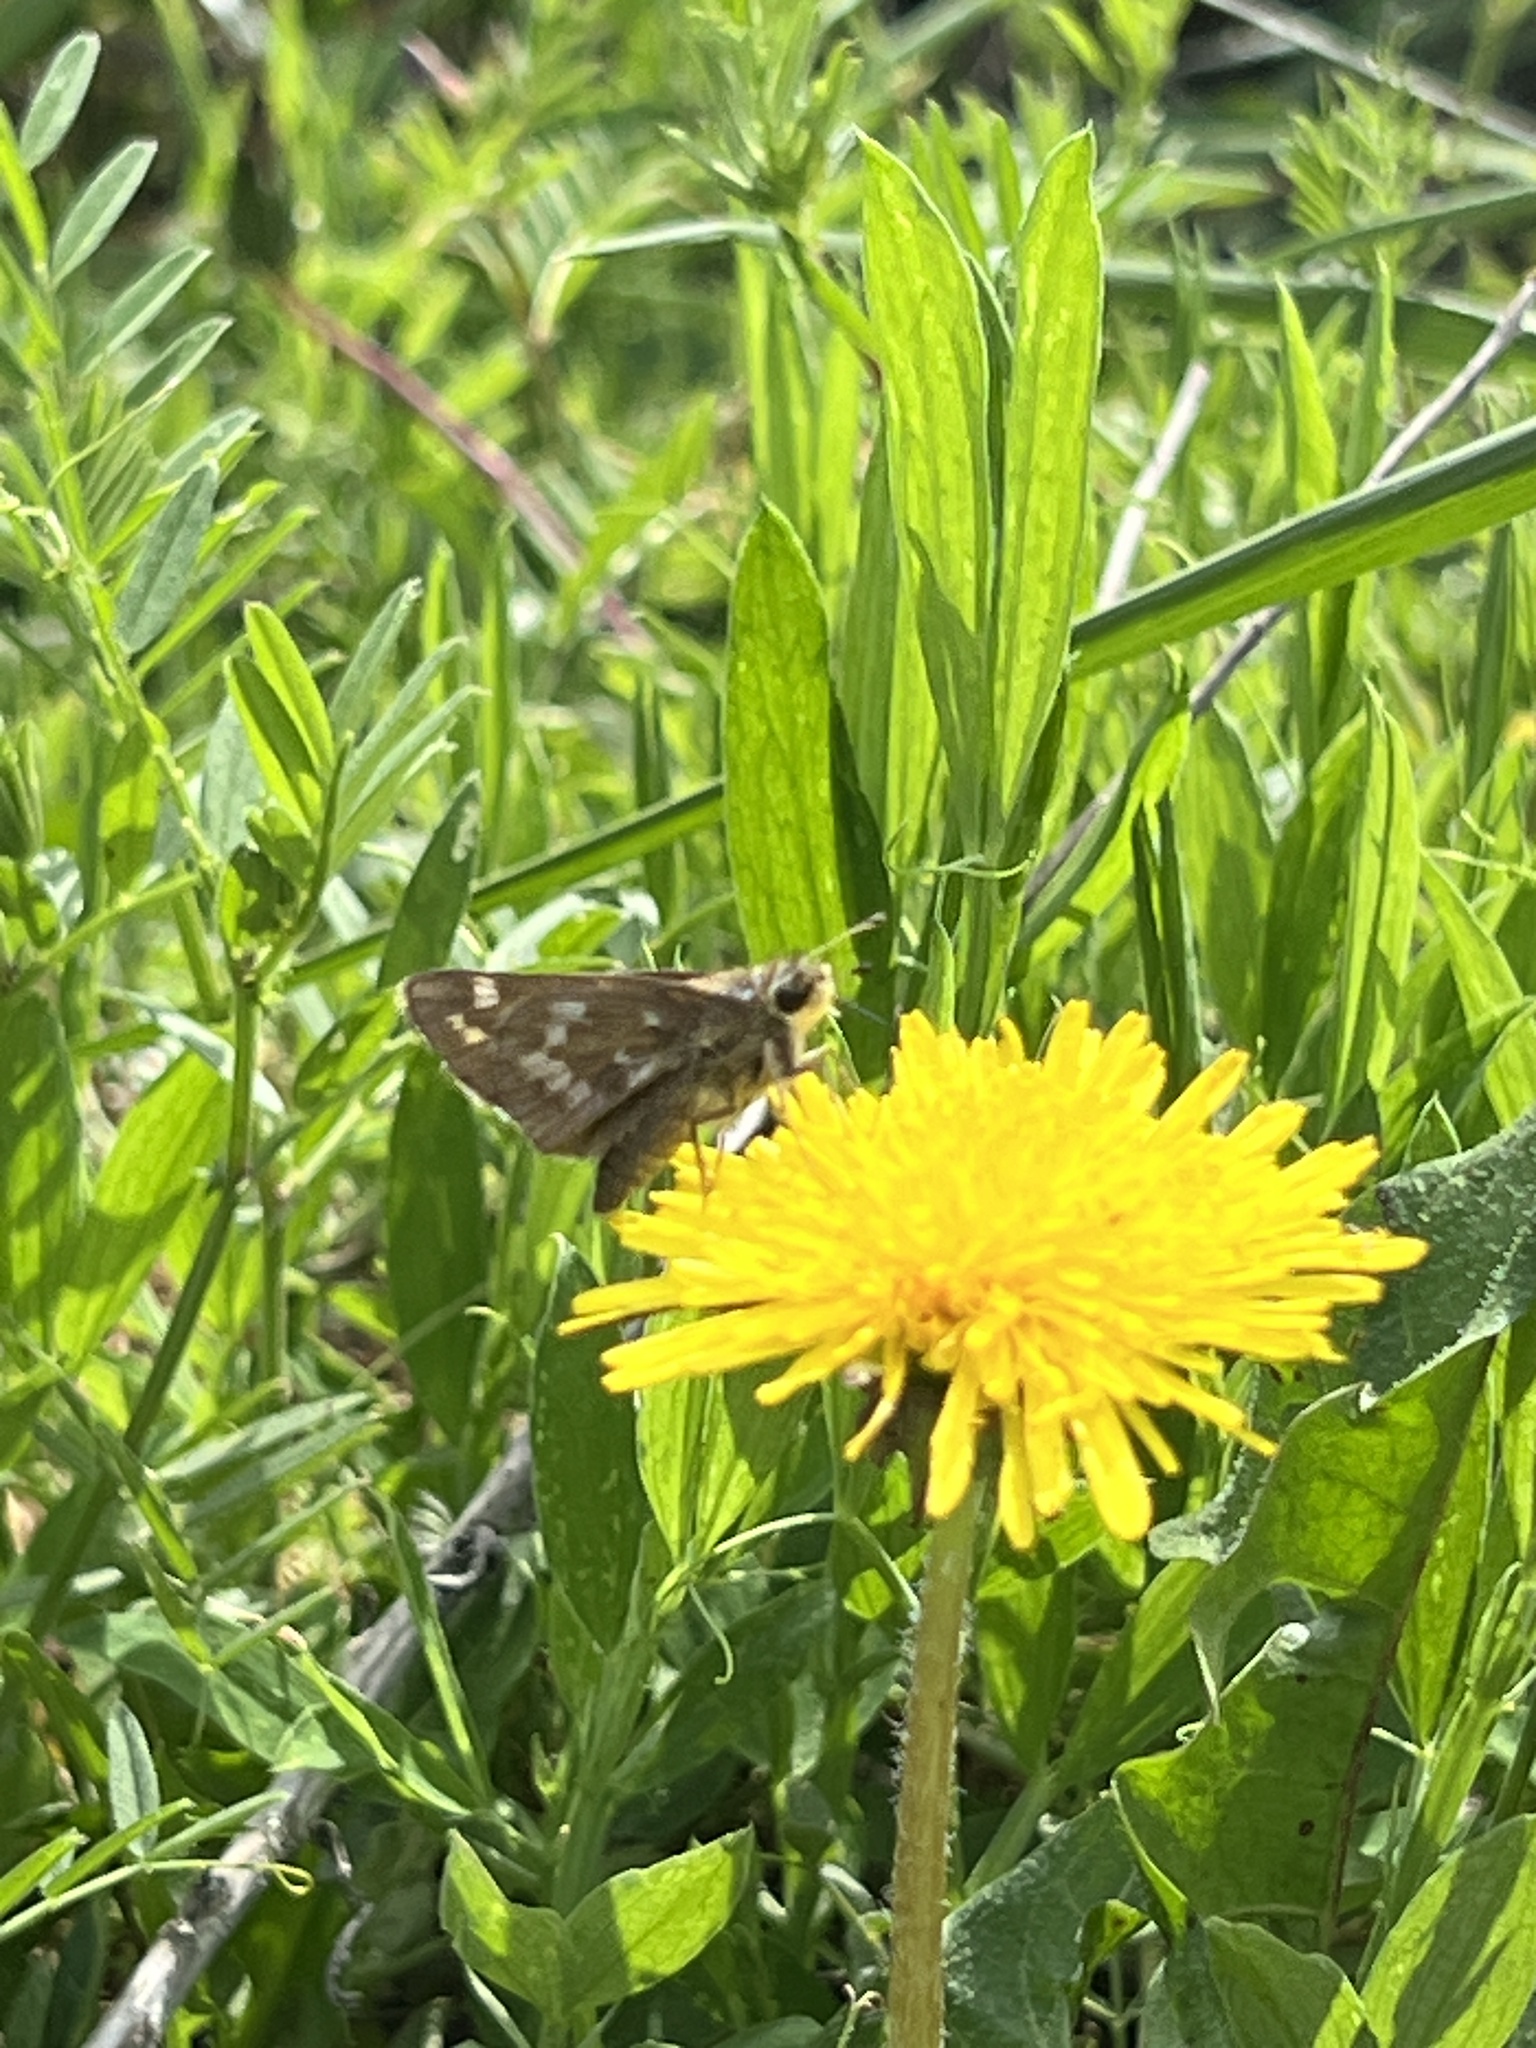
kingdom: Animalia
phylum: Arthropoda
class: Insecta
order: Lepidoptera
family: Hesperiidae
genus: Atalopedes
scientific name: Atalopedes
